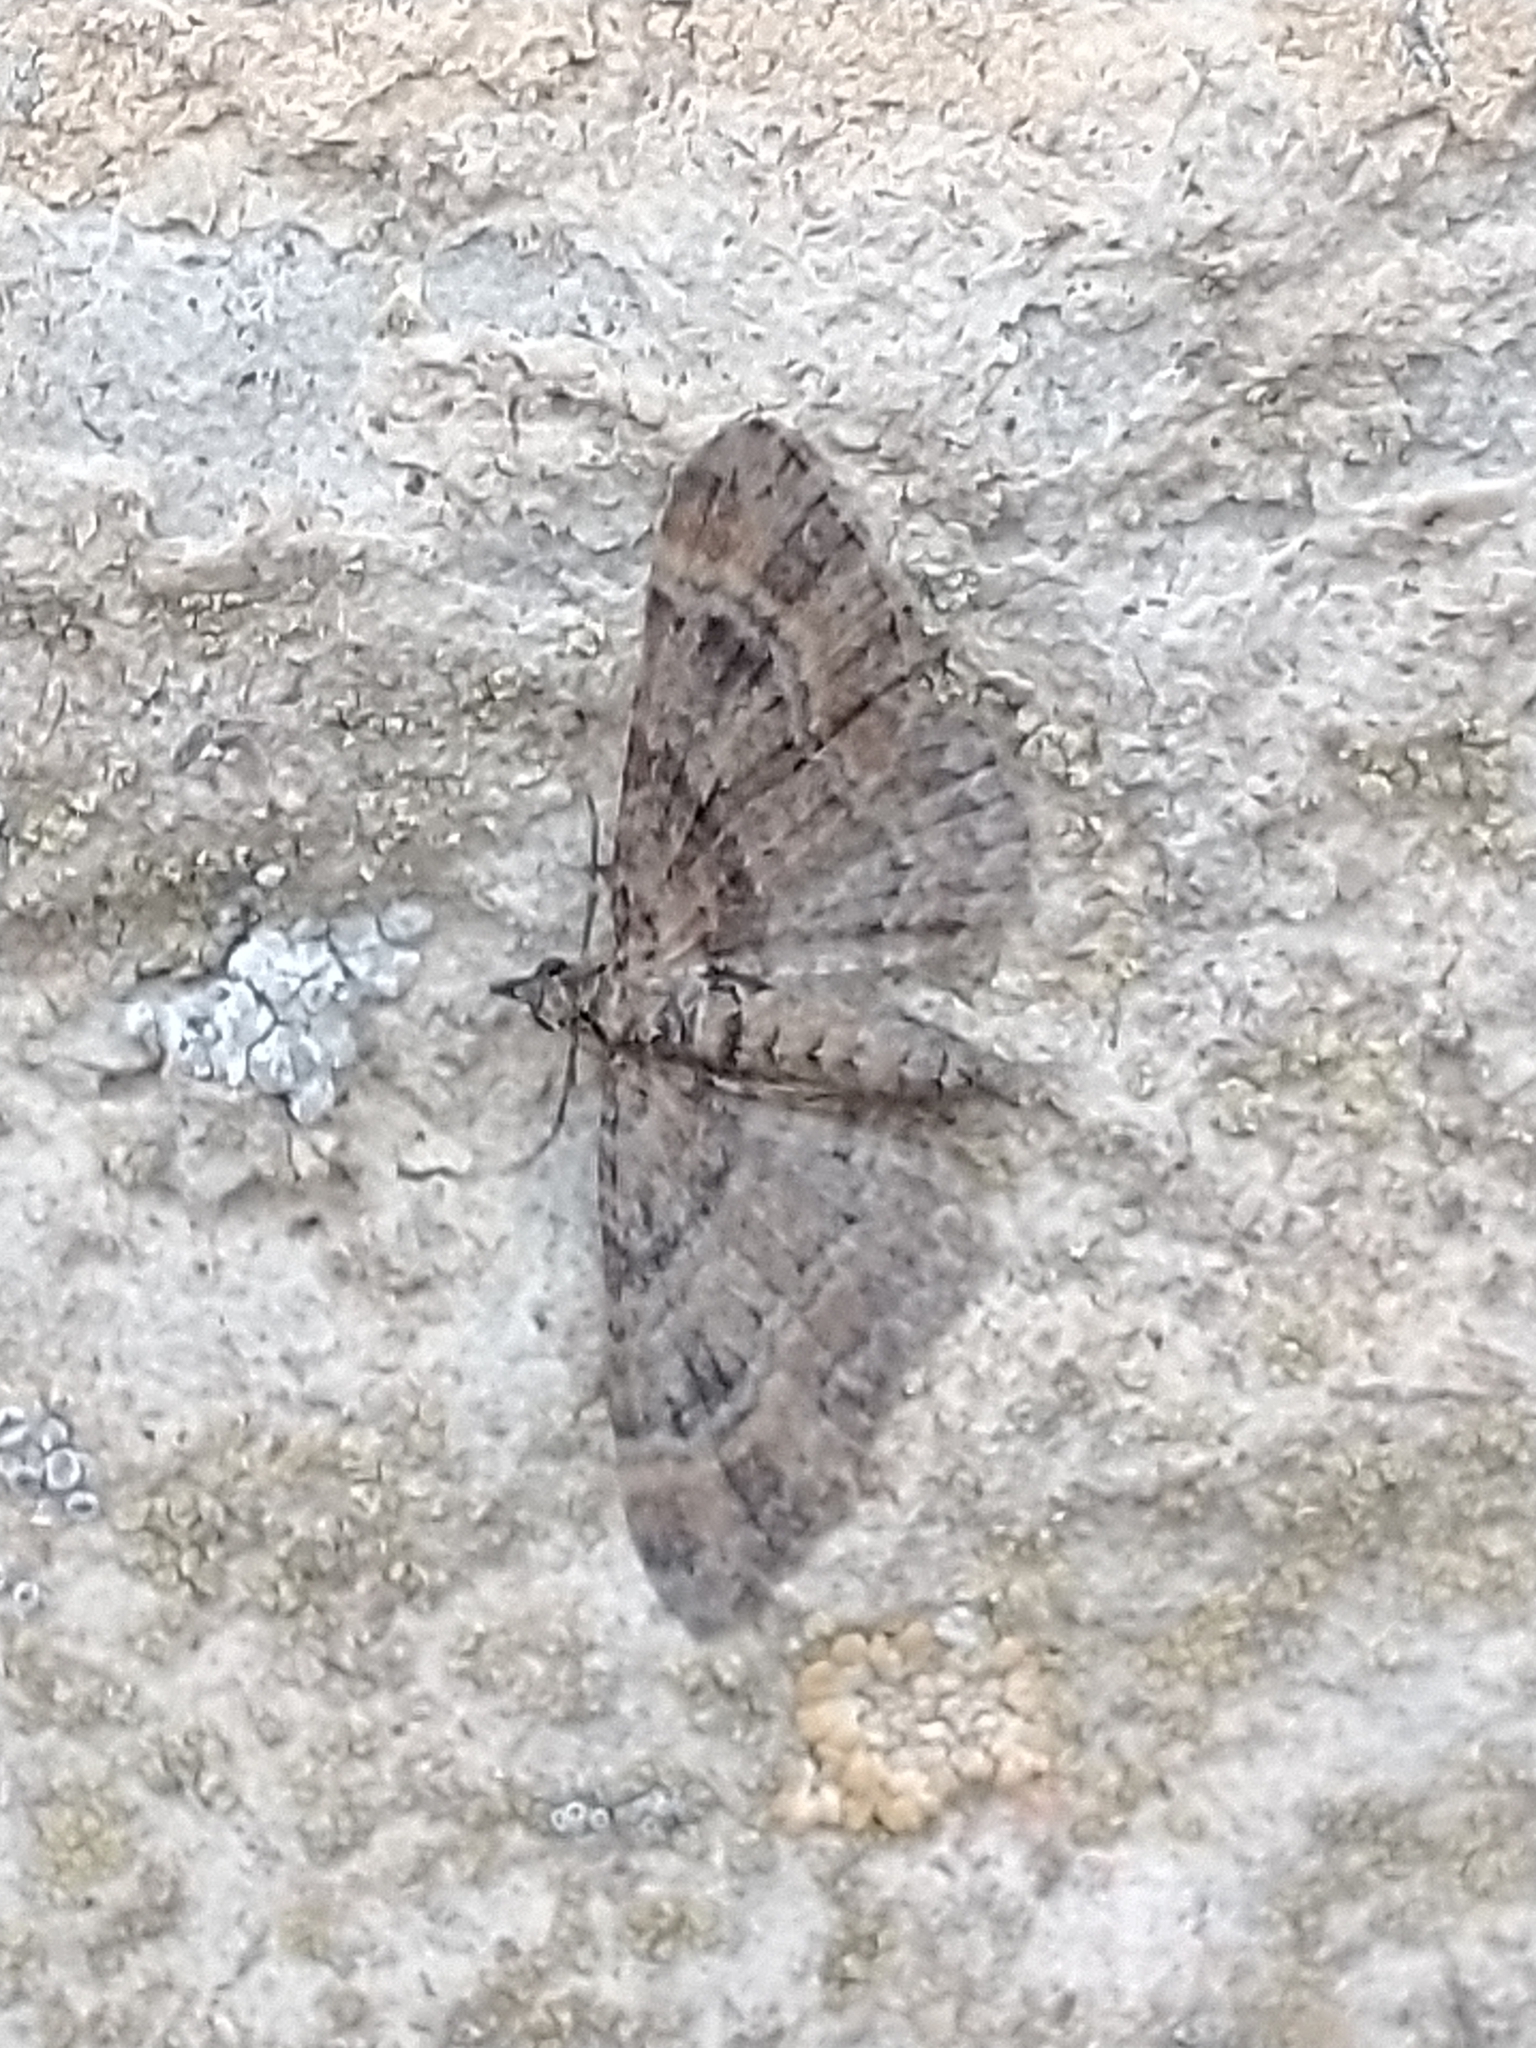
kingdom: Animalia
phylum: Arthropoda
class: Insecta
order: Lepidoptera
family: Geometridae
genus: Gymnoscelis
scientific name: Gymnoscelis rufifasciata
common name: Double-striped pug
